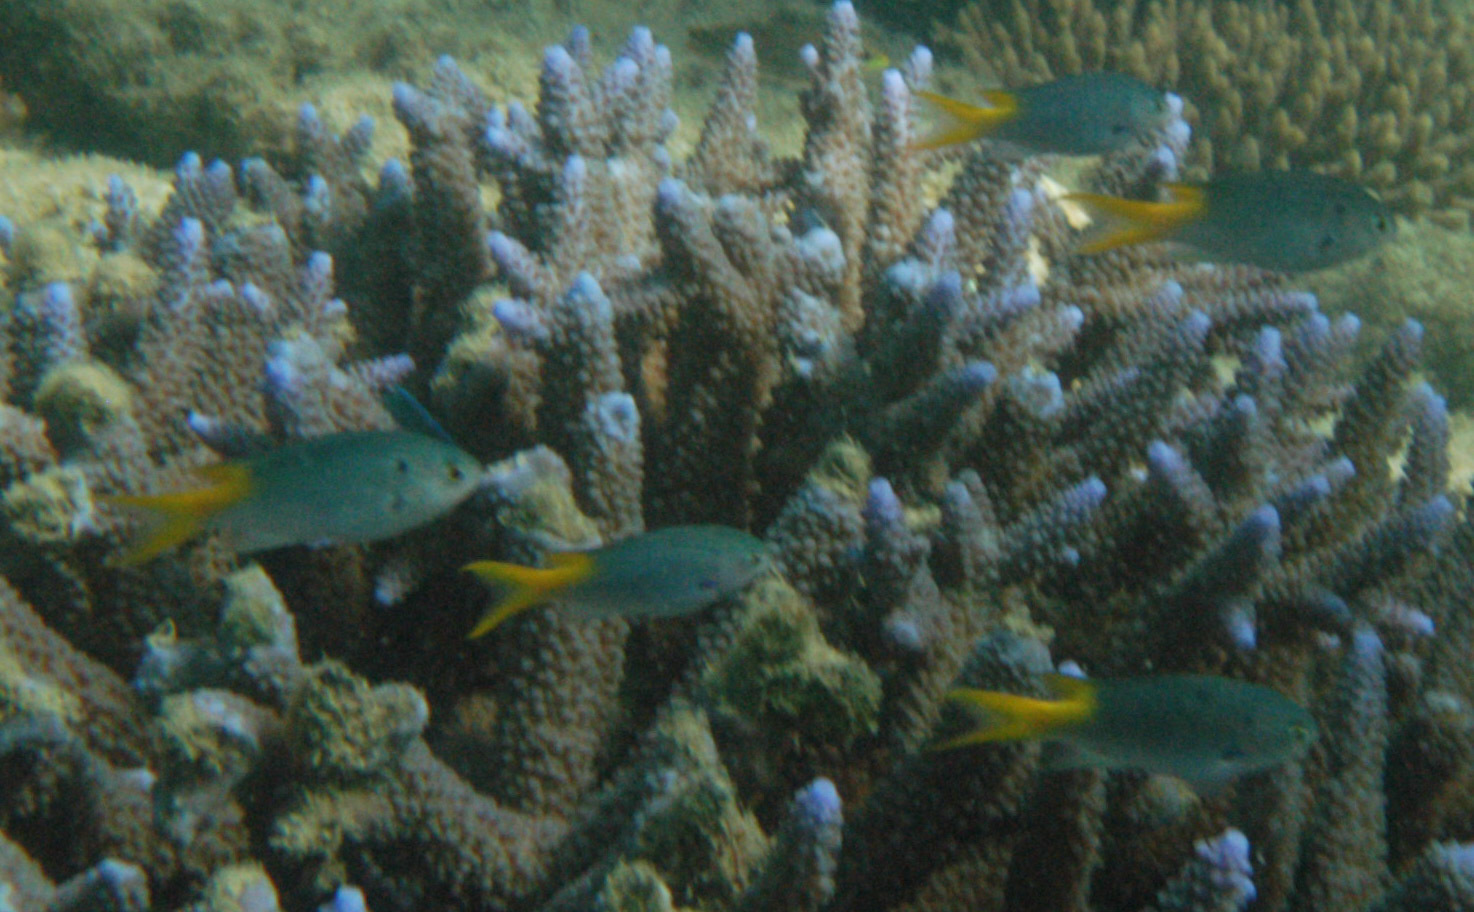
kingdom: Animalia
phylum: Chordata
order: Perciformes
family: Pomacentridae
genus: Neopomacentrus
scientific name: Neopomacentrus azysron
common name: Yellow-tail damsel
